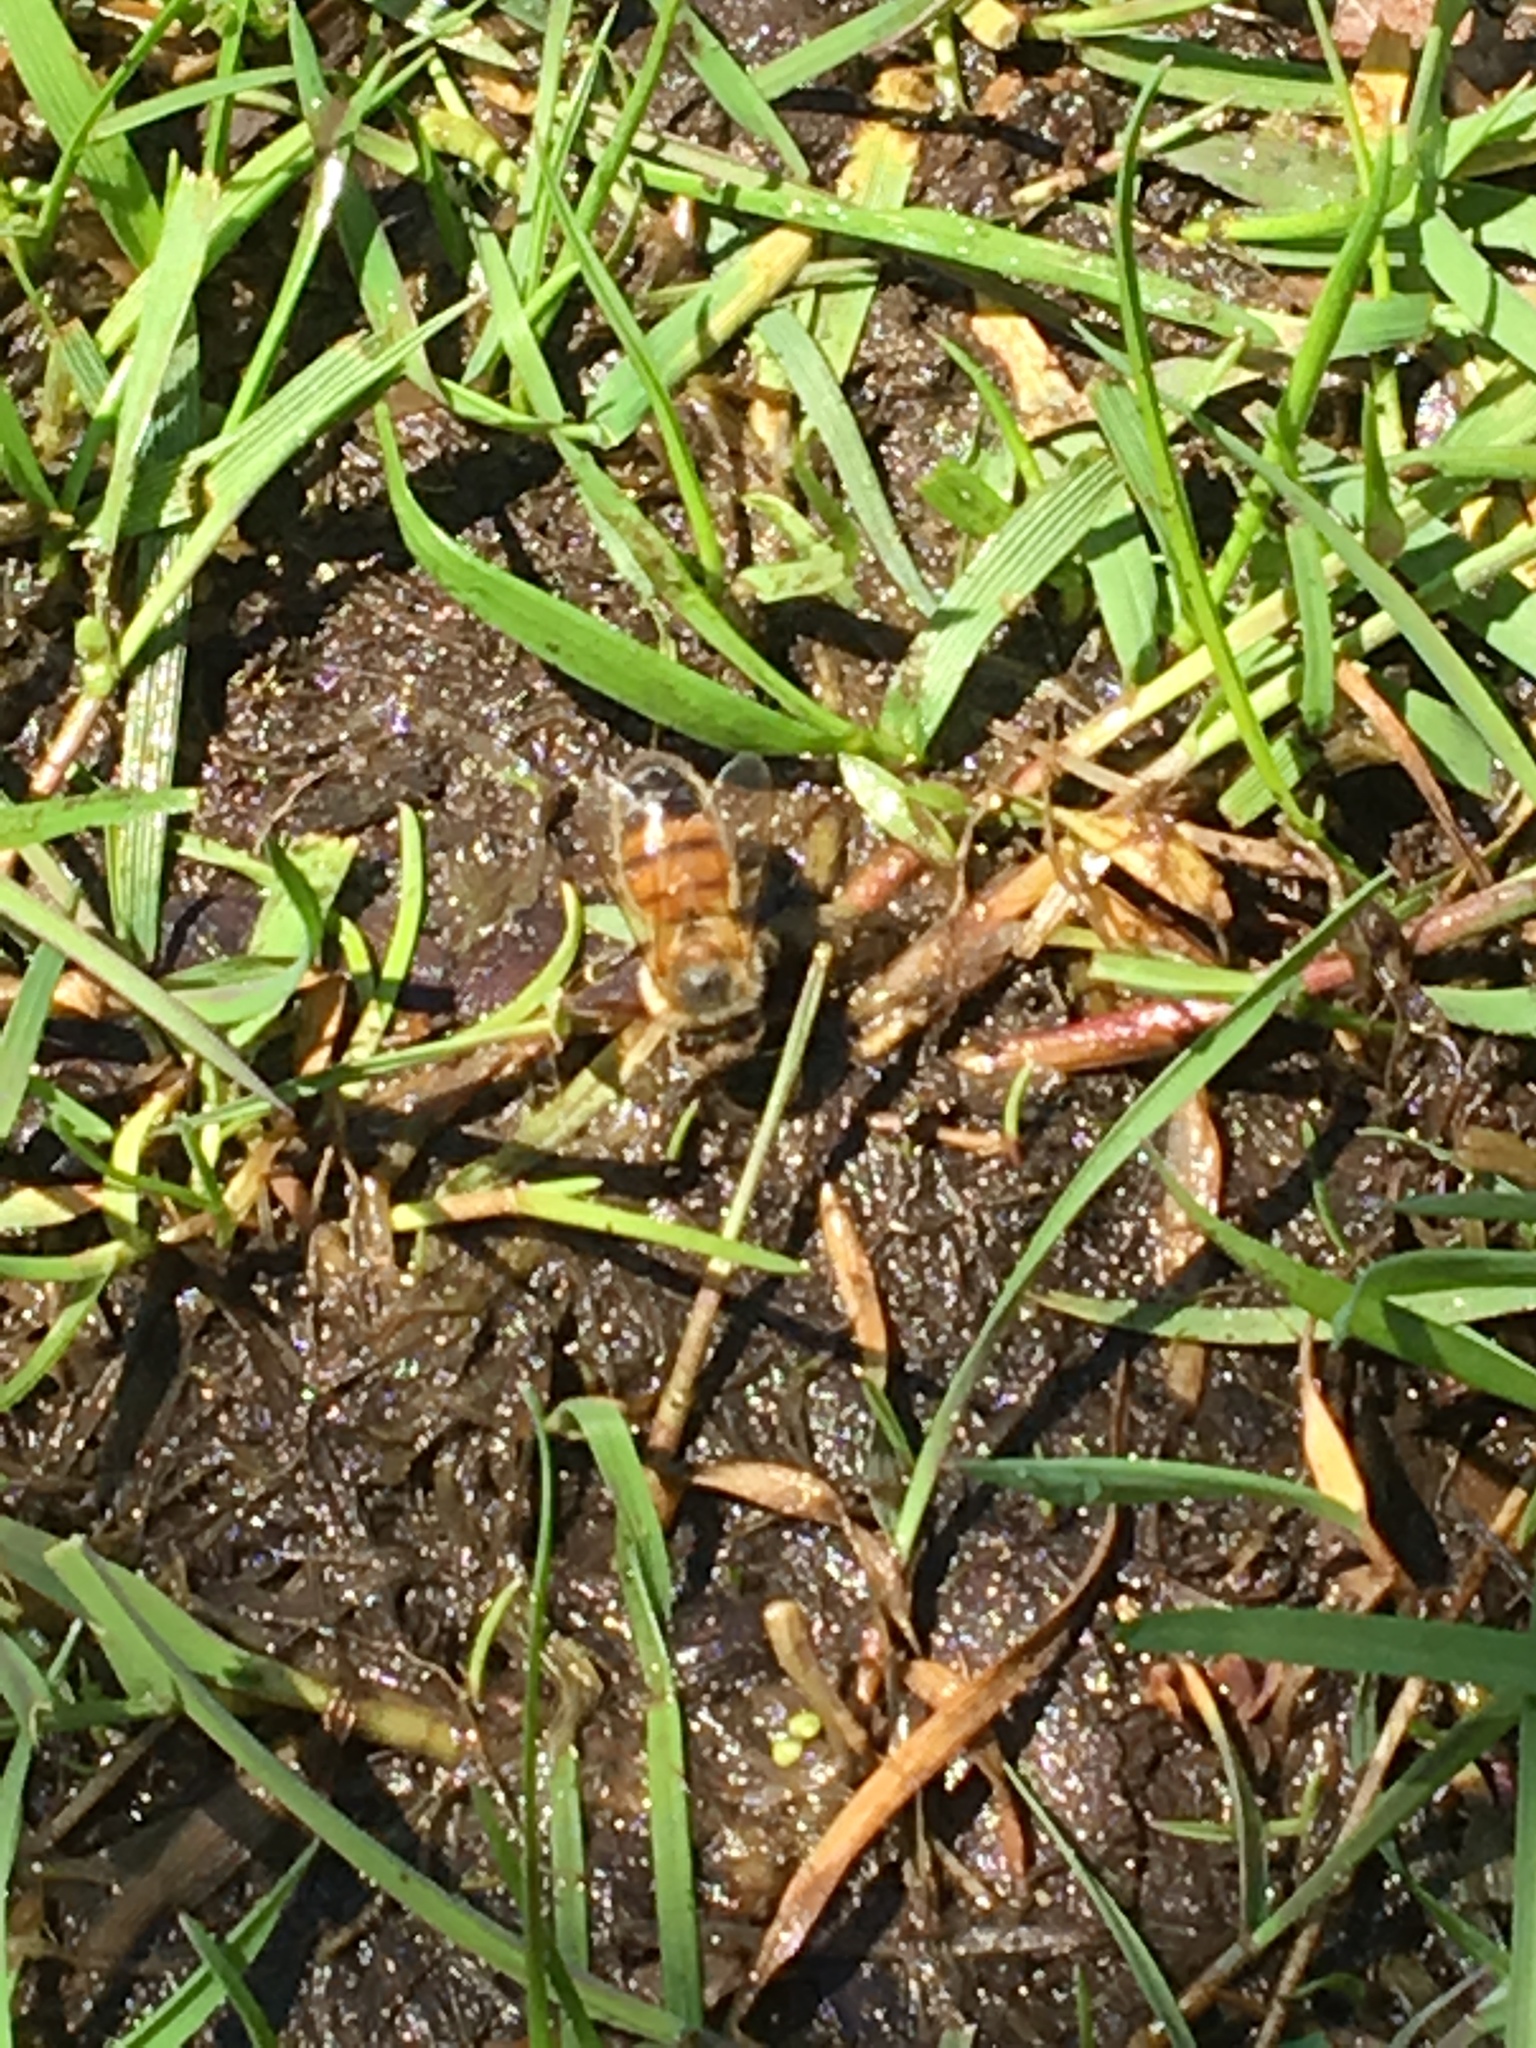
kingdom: Animalia
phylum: Arthropoda
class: Insecta
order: Hymenoptera
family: Apidae
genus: Apis
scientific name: Apis mellifera
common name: Honey bee
